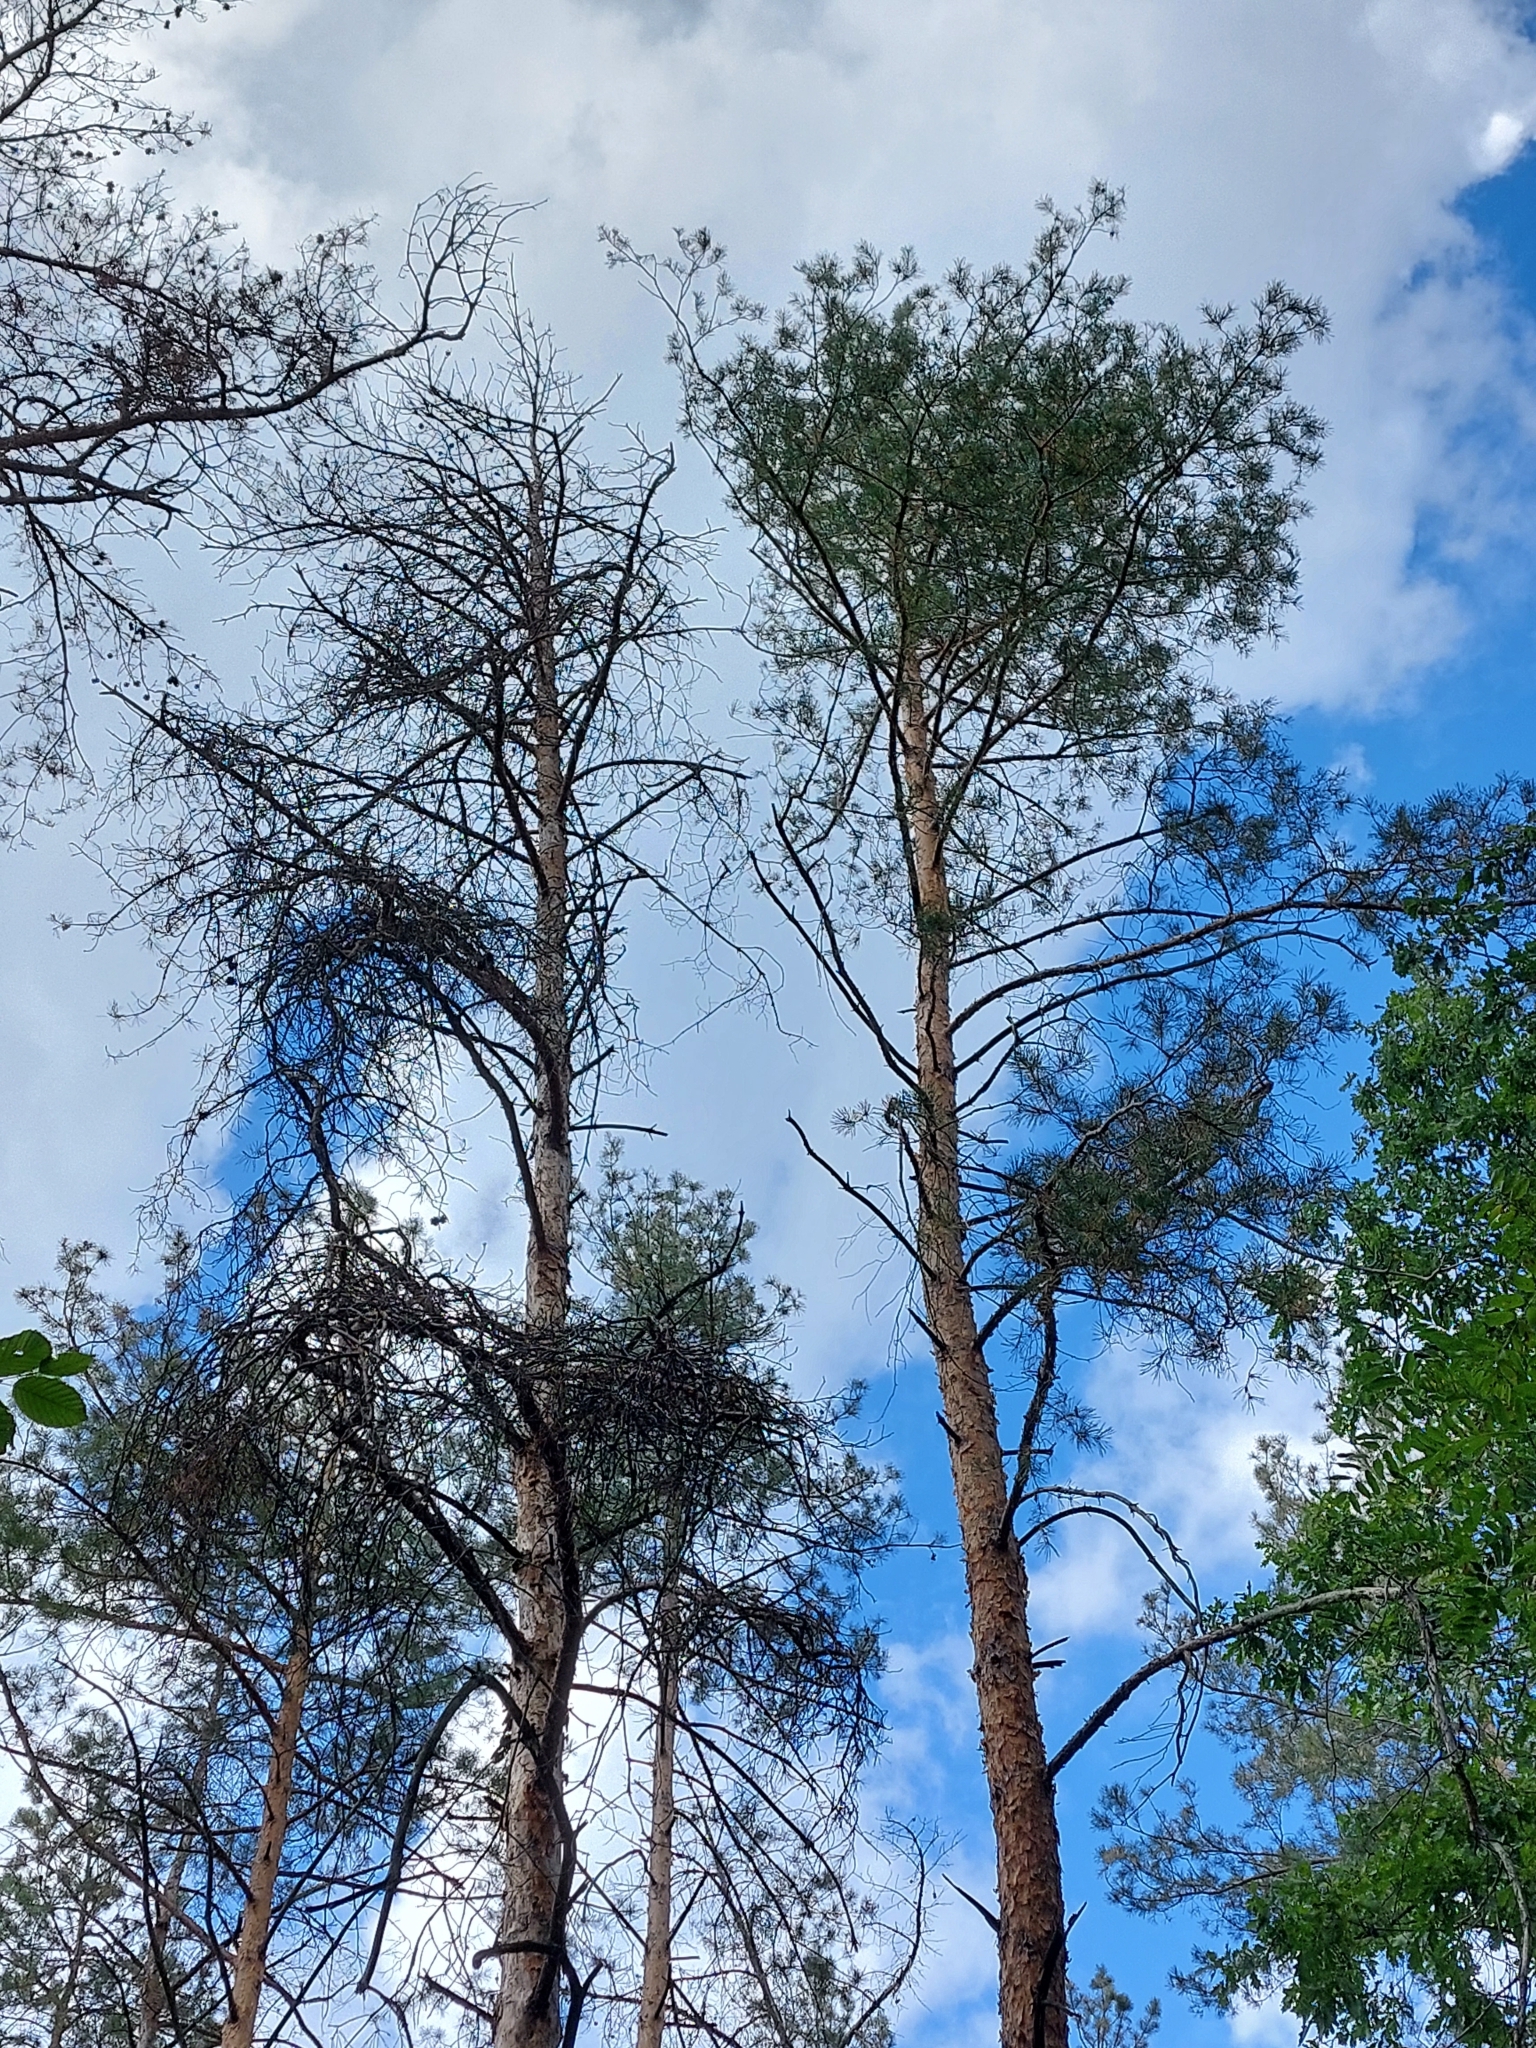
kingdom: Plantae
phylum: Tracheophyta
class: Pinopsida
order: Pinales
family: Pinaceae
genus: Pinus
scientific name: Pinus sylvestris
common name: Scots pine
